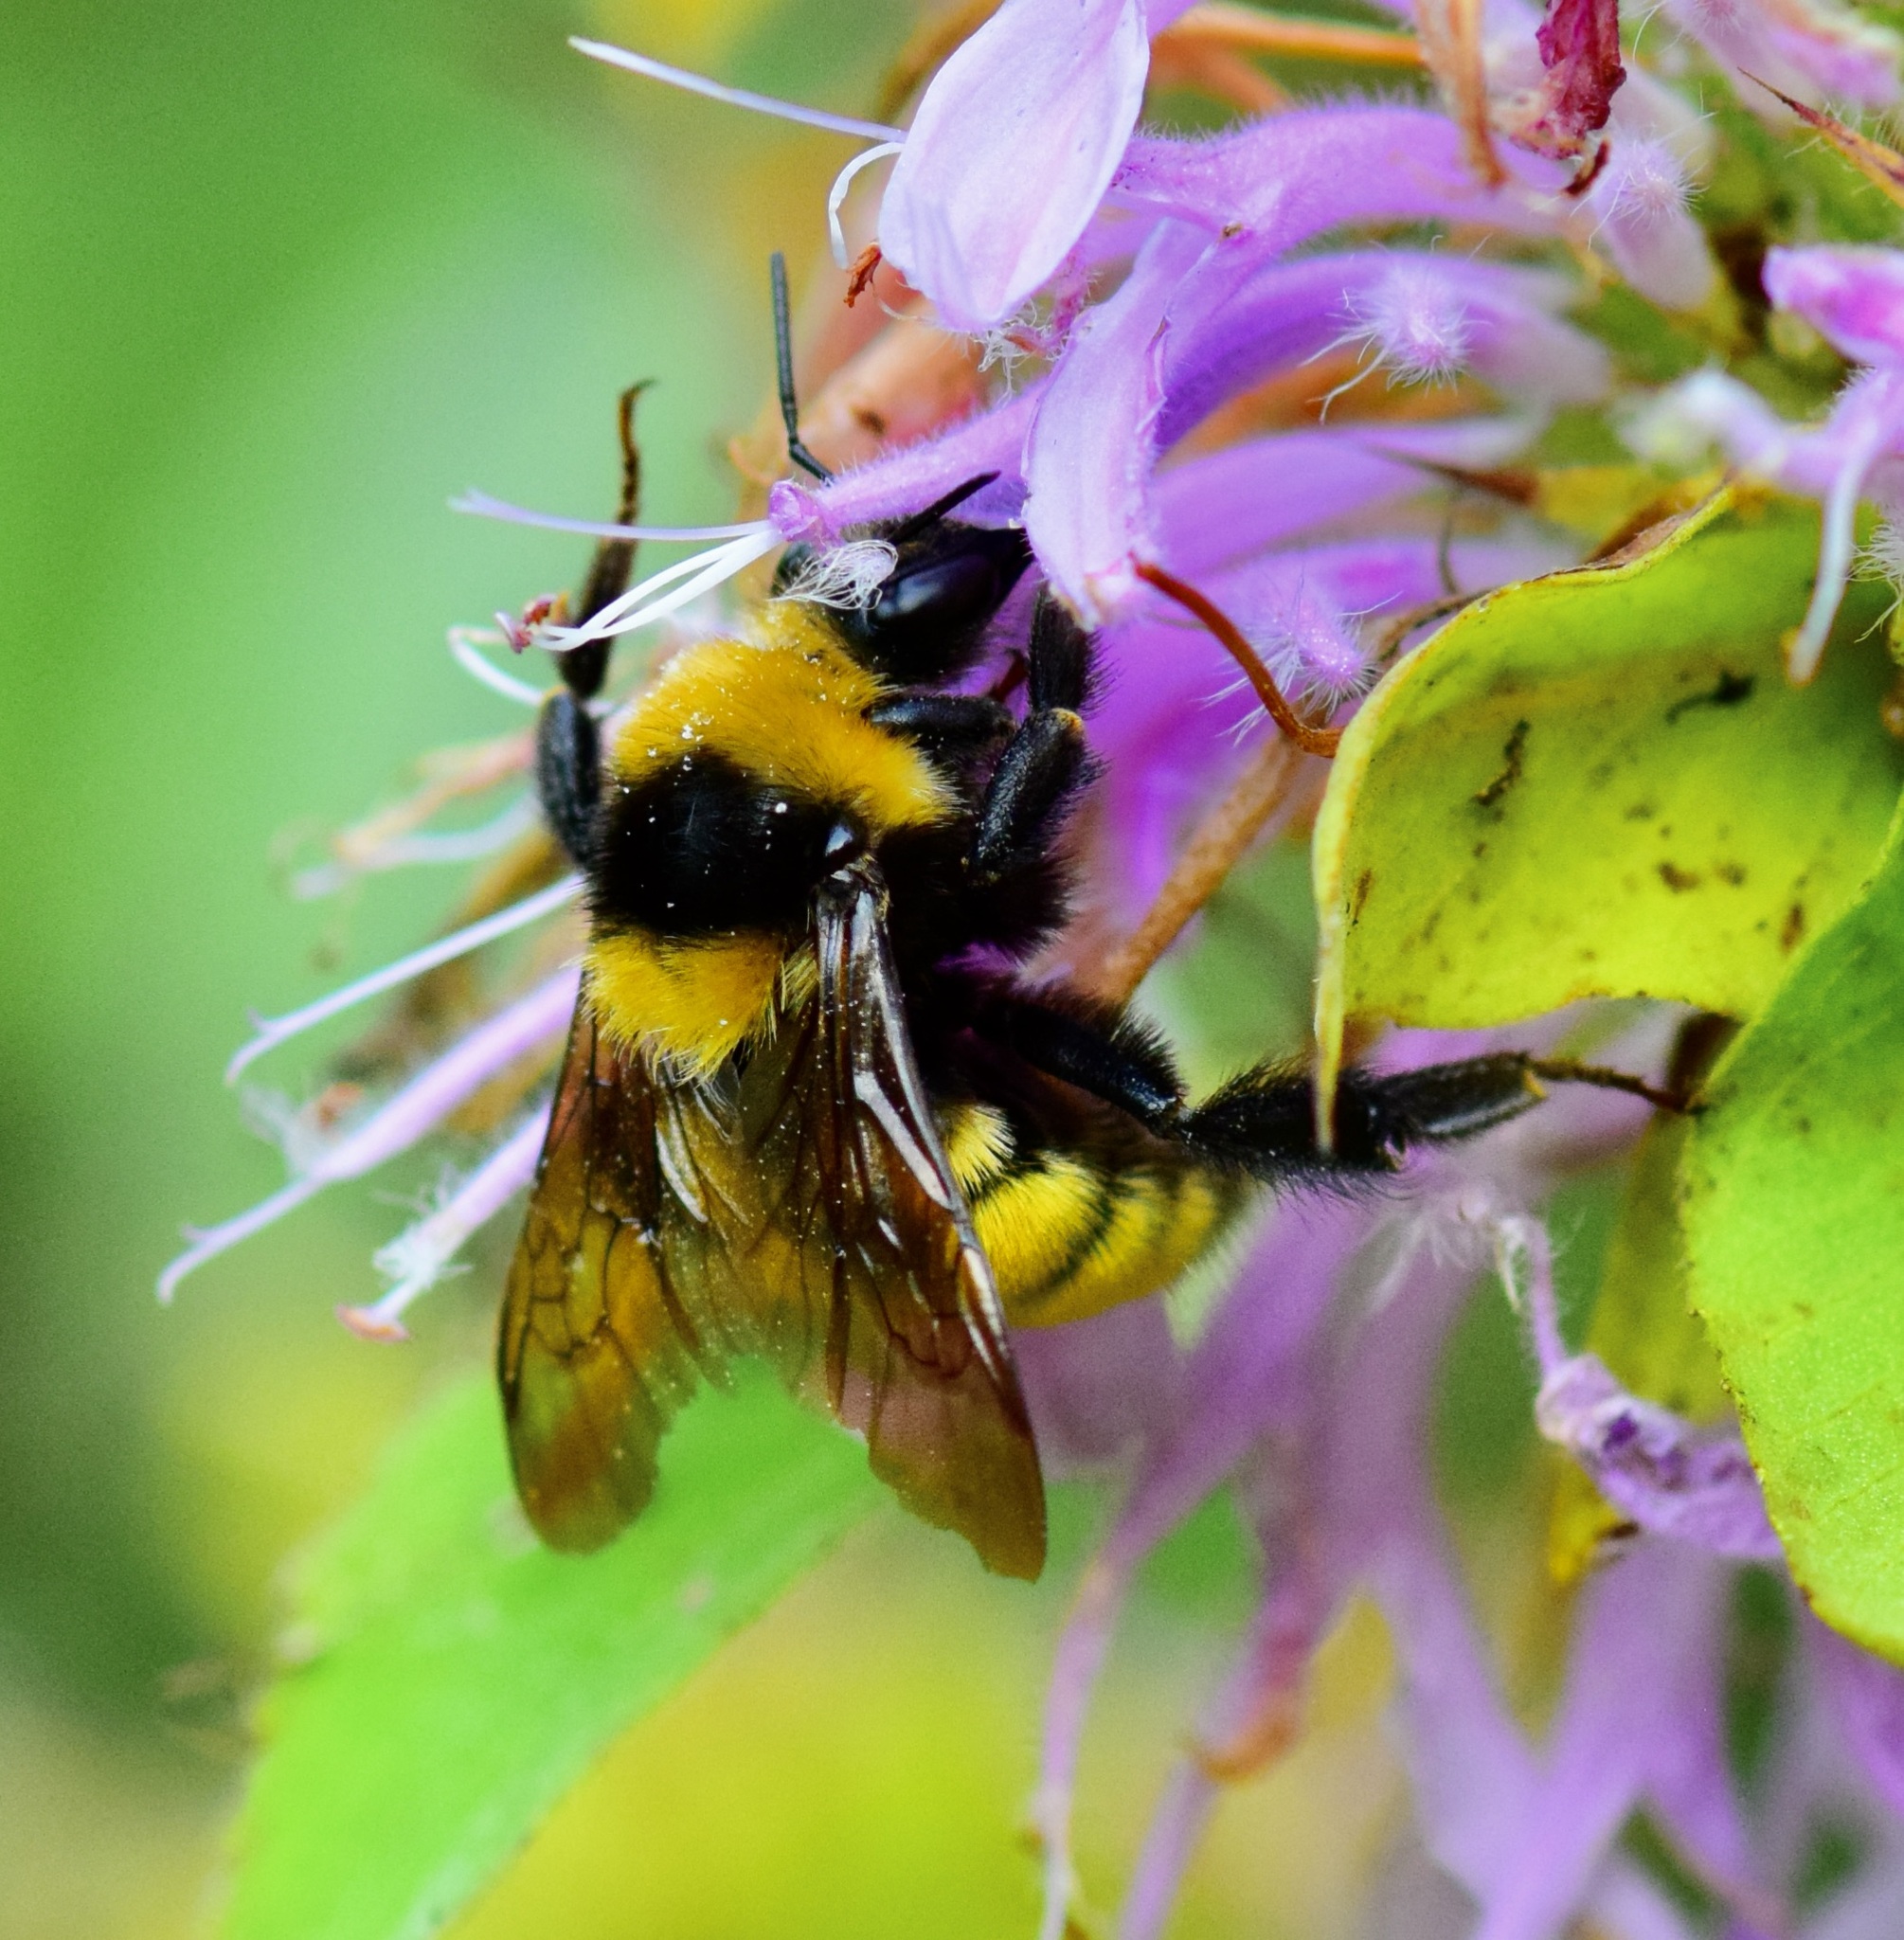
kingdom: Animalia
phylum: Arthropoda
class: Insecta
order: Hymenoptera
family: Apidae
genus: Bombus
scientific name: Bombus borealis
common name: Northern amber bumble bee
